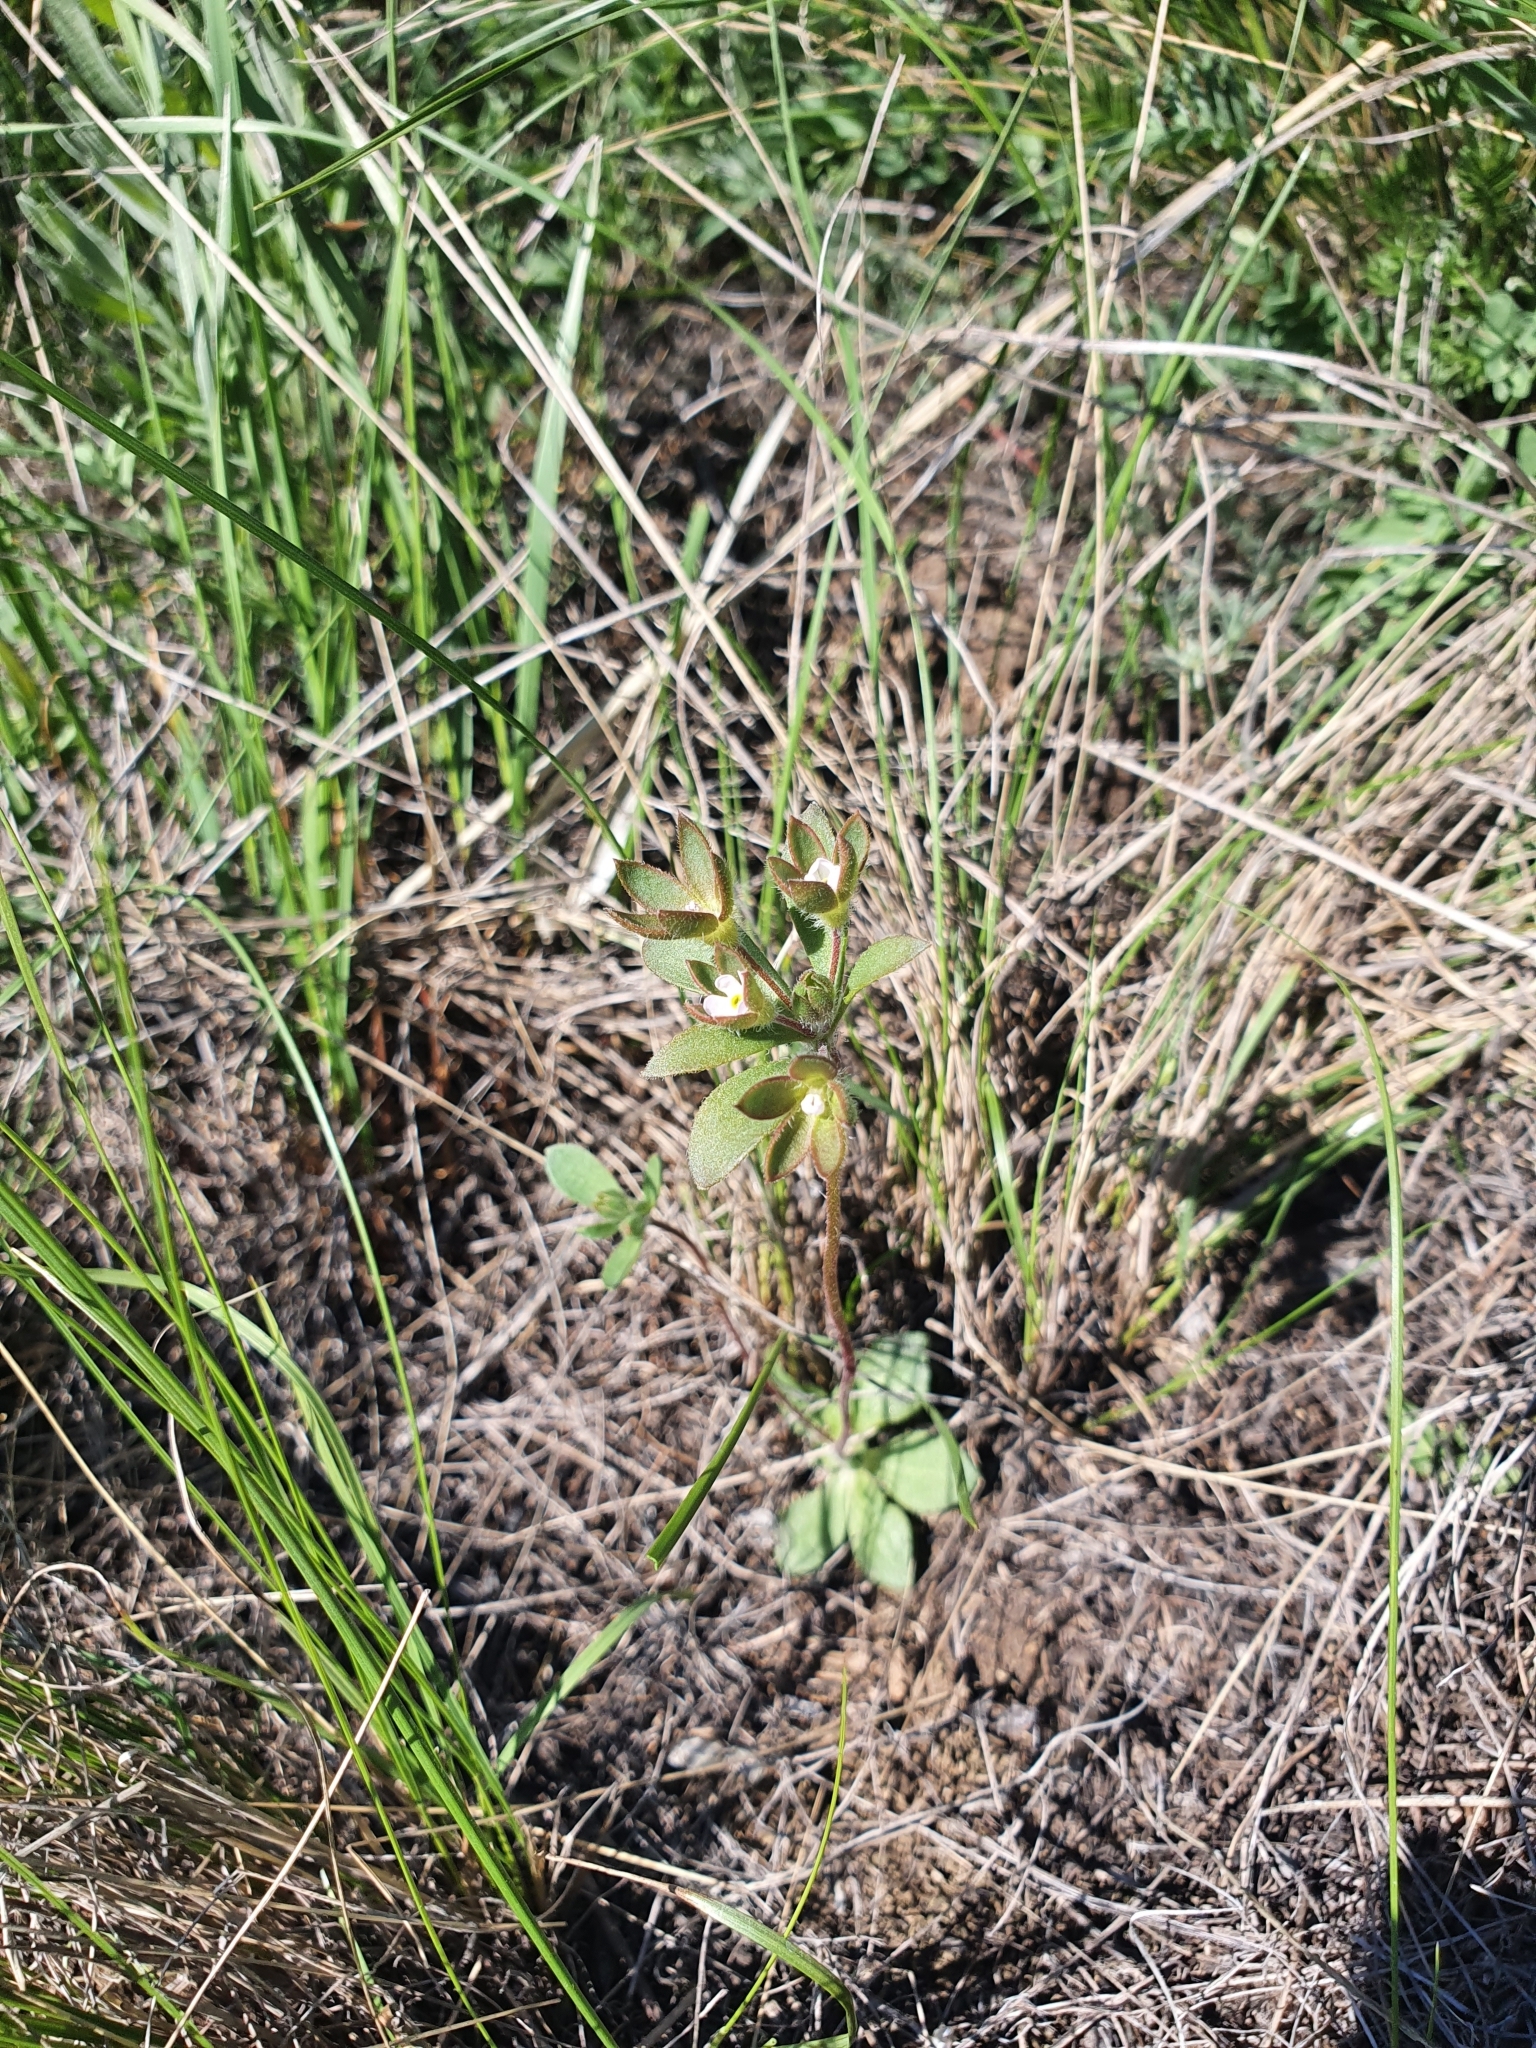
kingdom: Plantae
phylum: Tracheophyta
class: Magnoliopsida
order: Ericales
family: Primulaceae
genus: Androsace
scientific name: Androsace maxima
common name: Annual androsace
